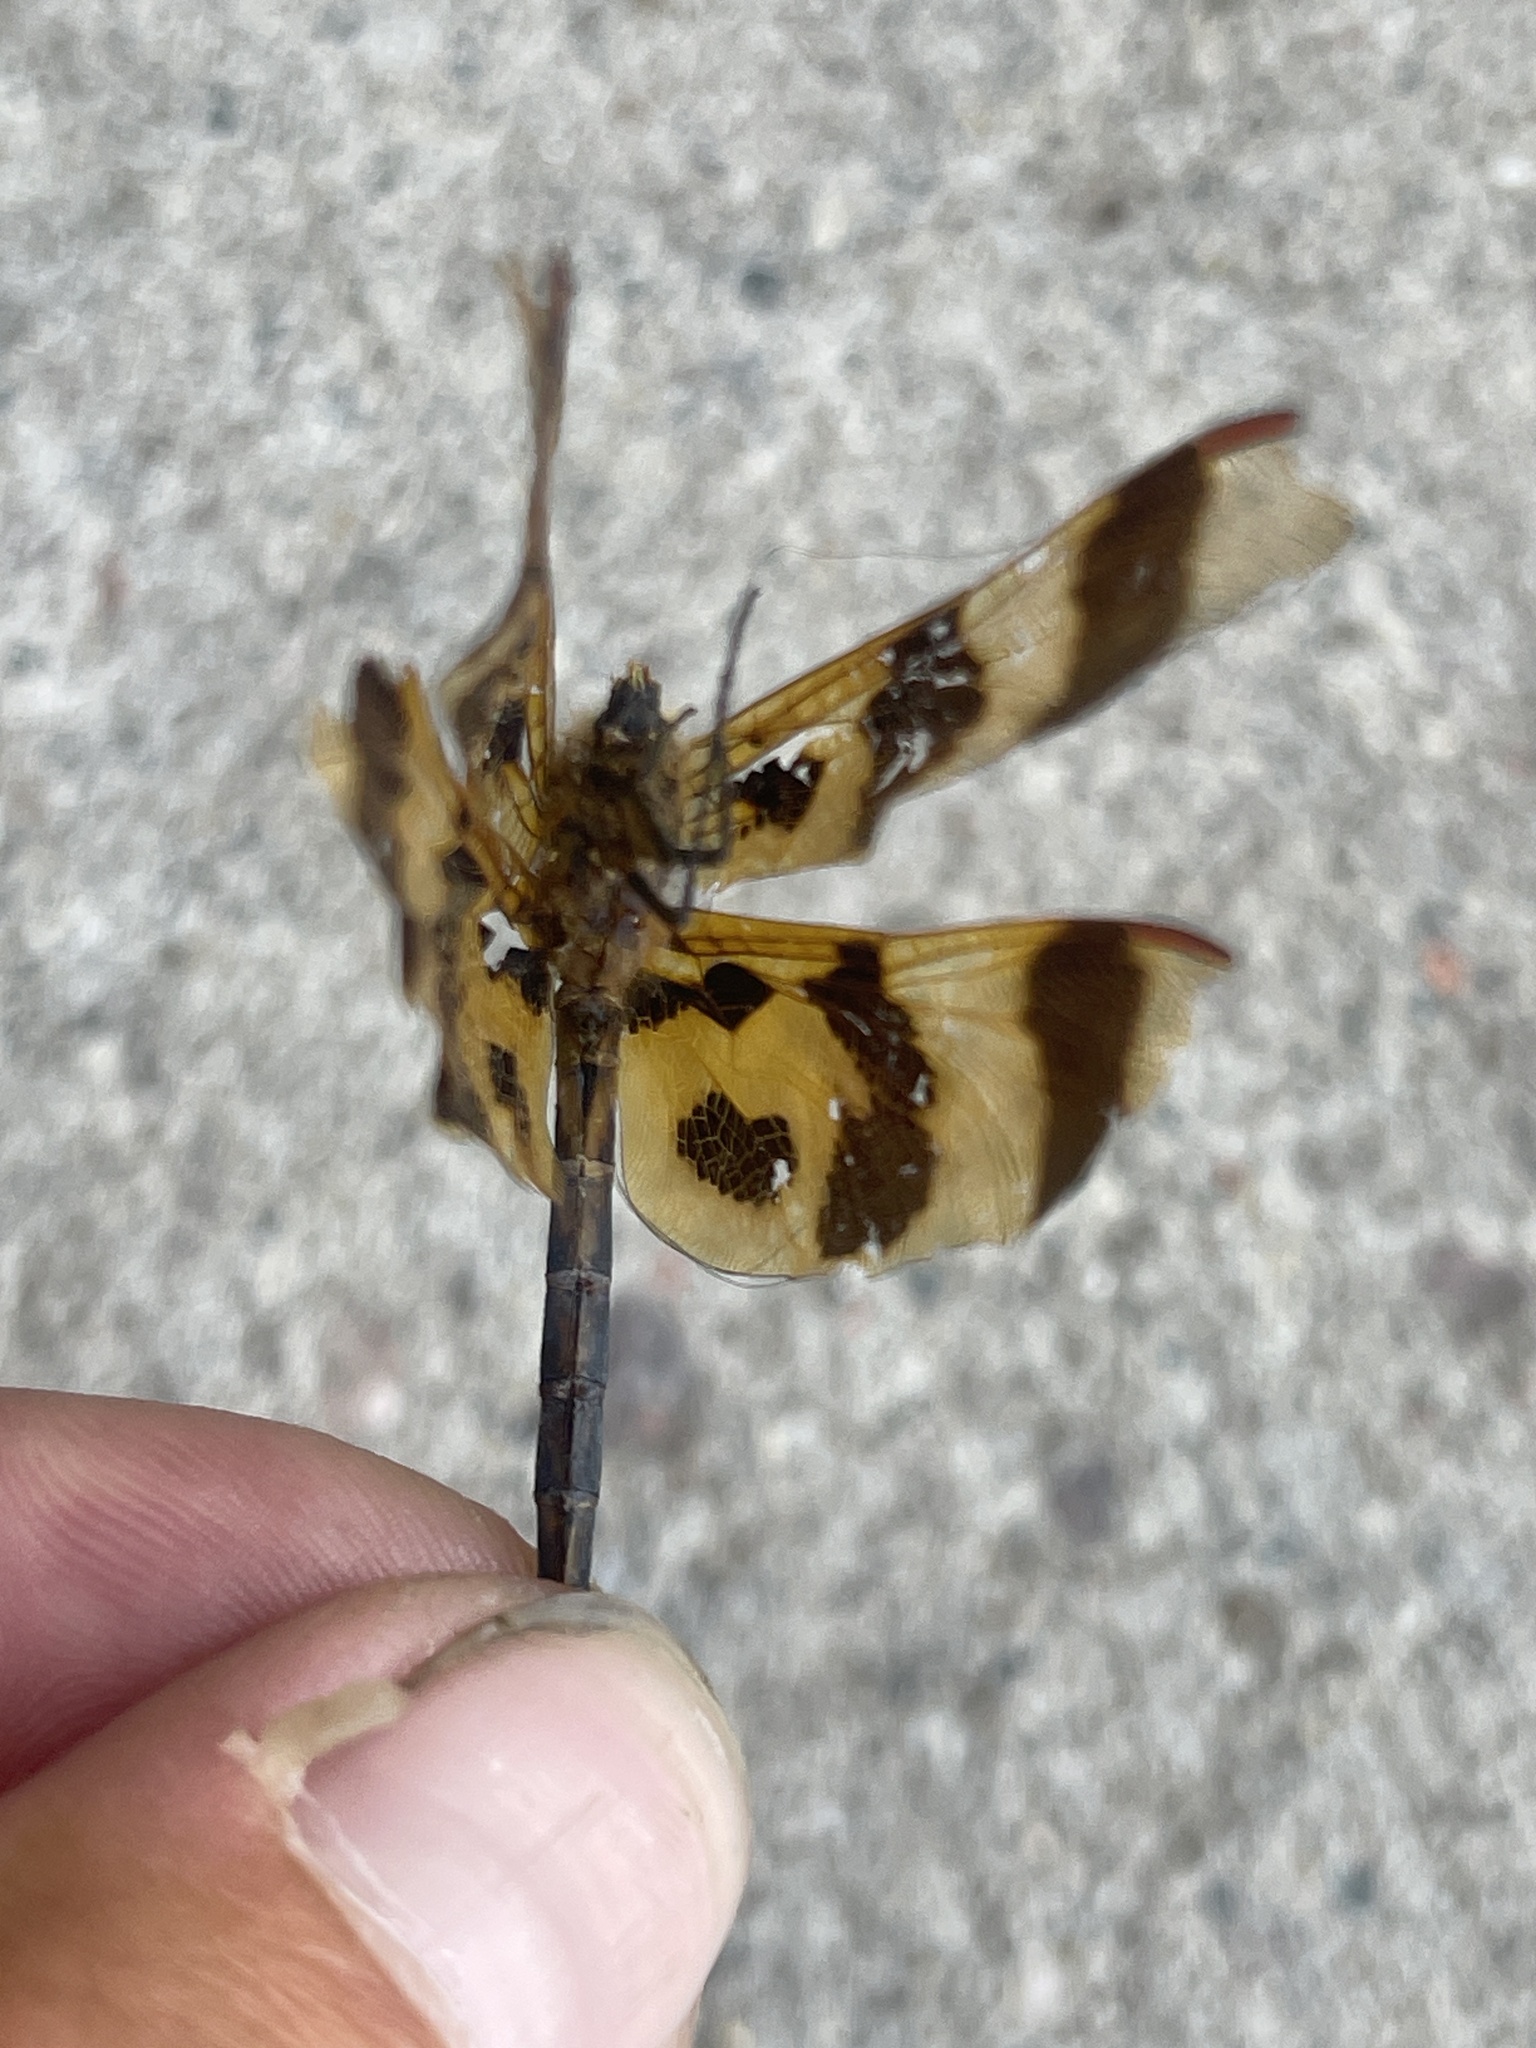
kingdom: Animalia
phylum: Arthropoda
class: Insecta
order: Odonata
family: Libellulidae
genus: Celithemis
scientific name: Celithemis eponina
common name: Halloween pennant
